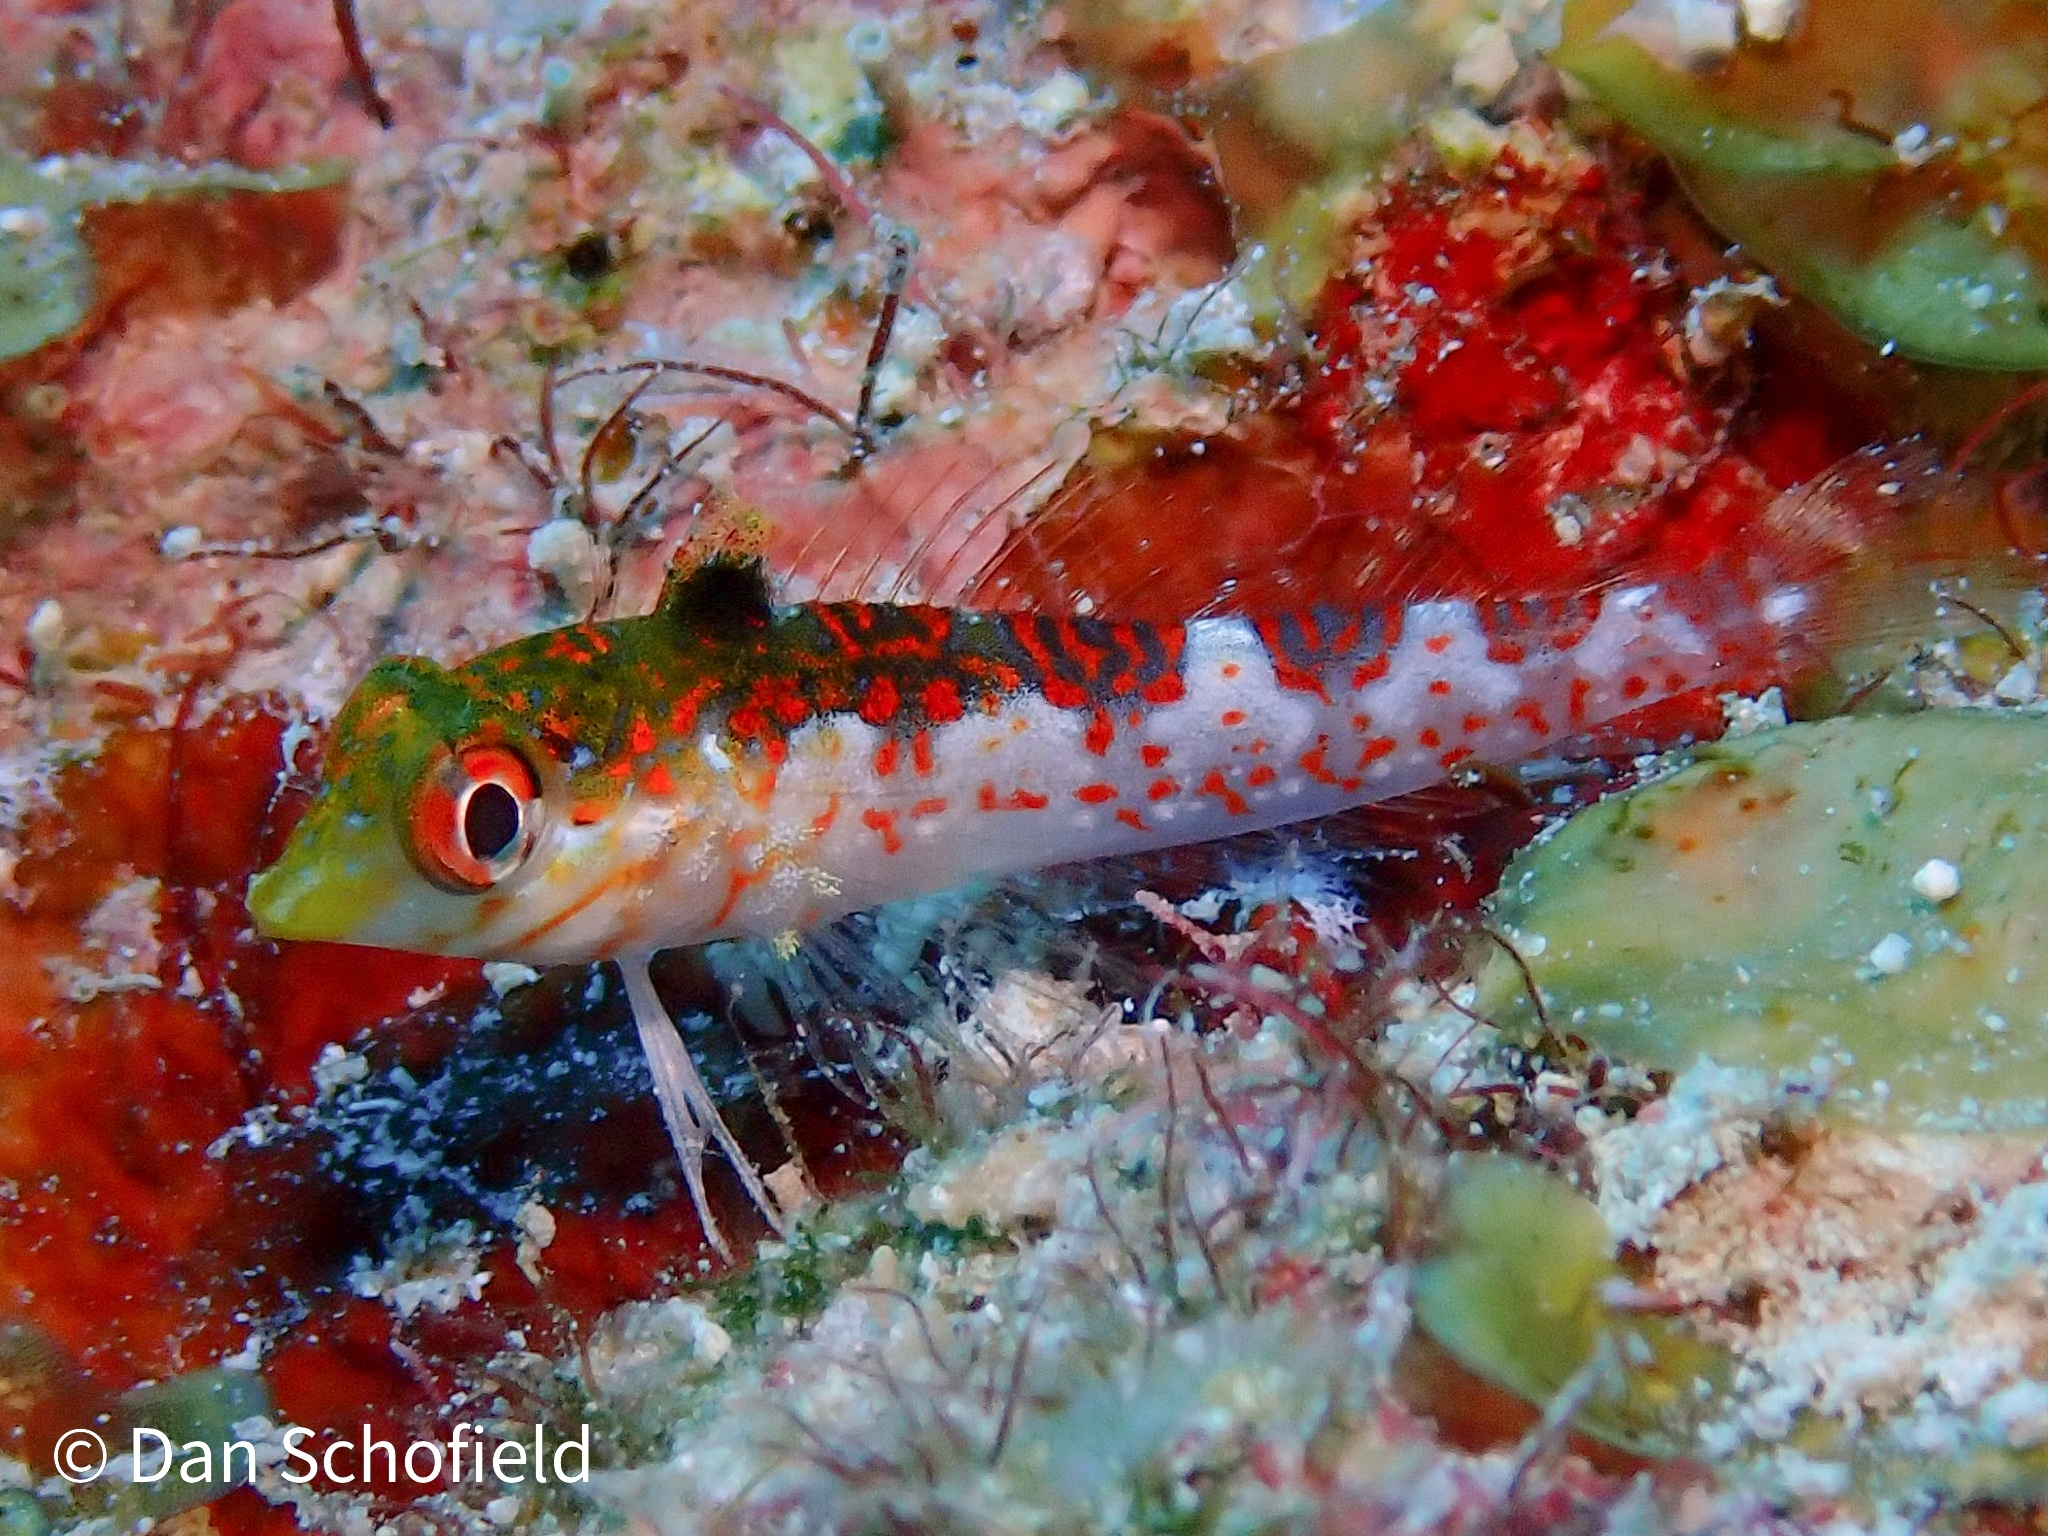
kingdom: Animalia
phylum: Chordata
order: Perciformes
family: Labrisomidae
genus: Malacoctenus
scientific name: Malacoctenus triangulatus
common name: Saddled blenny
